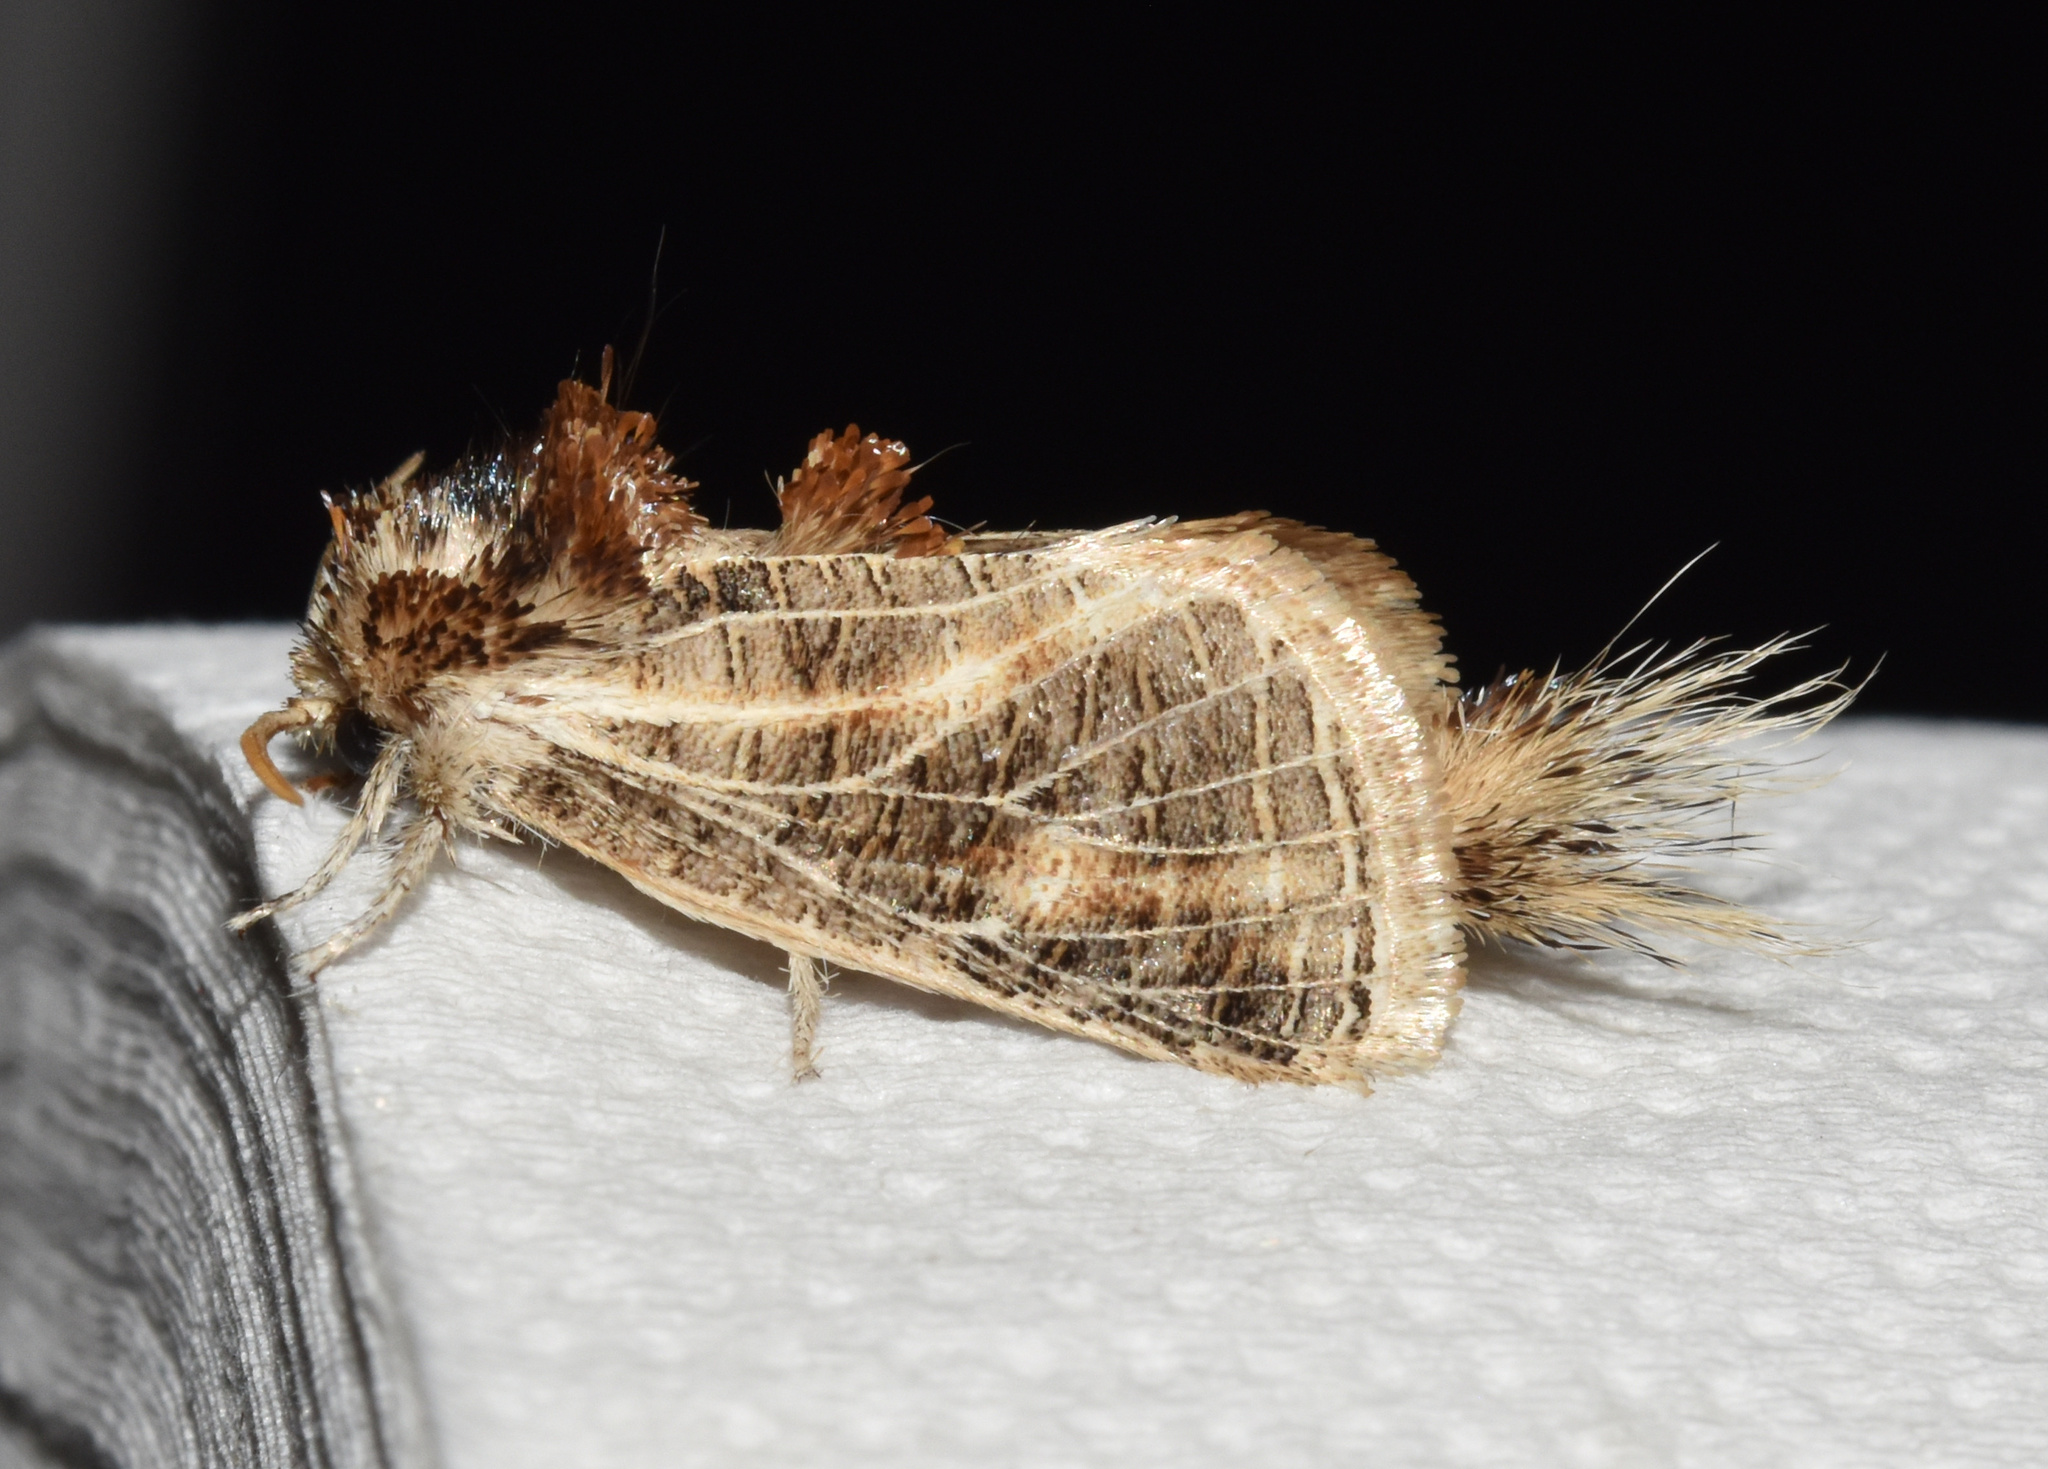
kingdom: Animalia
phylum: Arthropoda
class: Insecta
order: Lepidoptera
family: Metarbelidae
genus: Salagena
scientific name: Salagena reticulata
